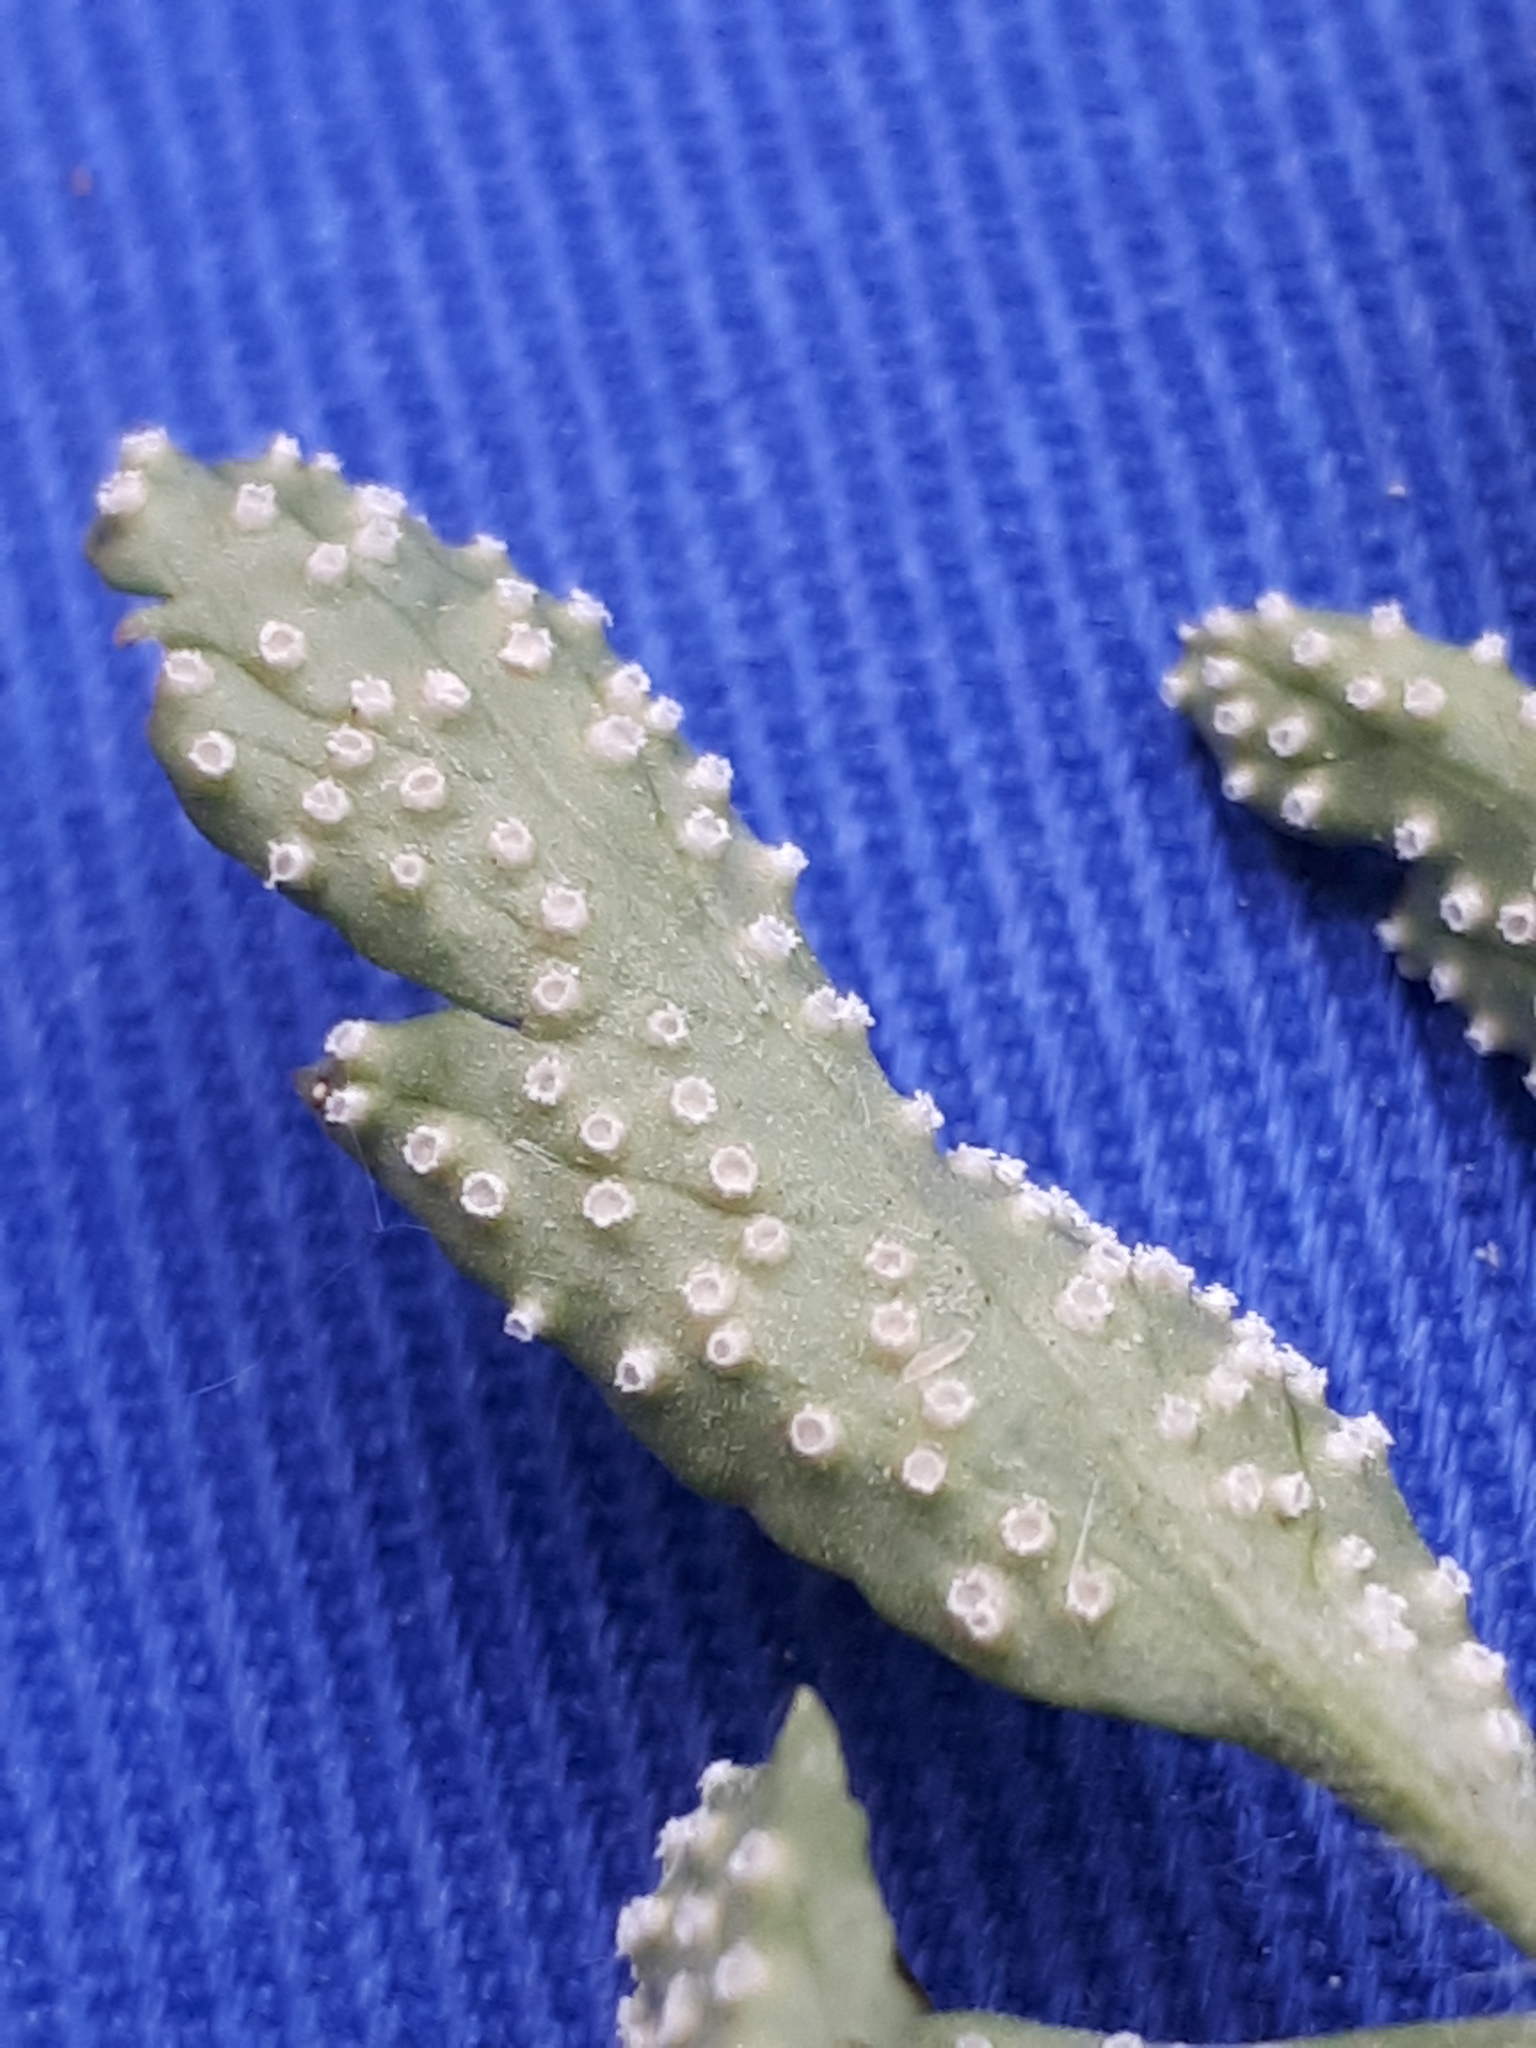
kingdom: Fungi
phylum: Basidiomycota
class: Pucciniomycetes
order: Pucciniales
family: Ochropsoraceae
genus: Ochropsora
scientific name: Ochropsora ariae
